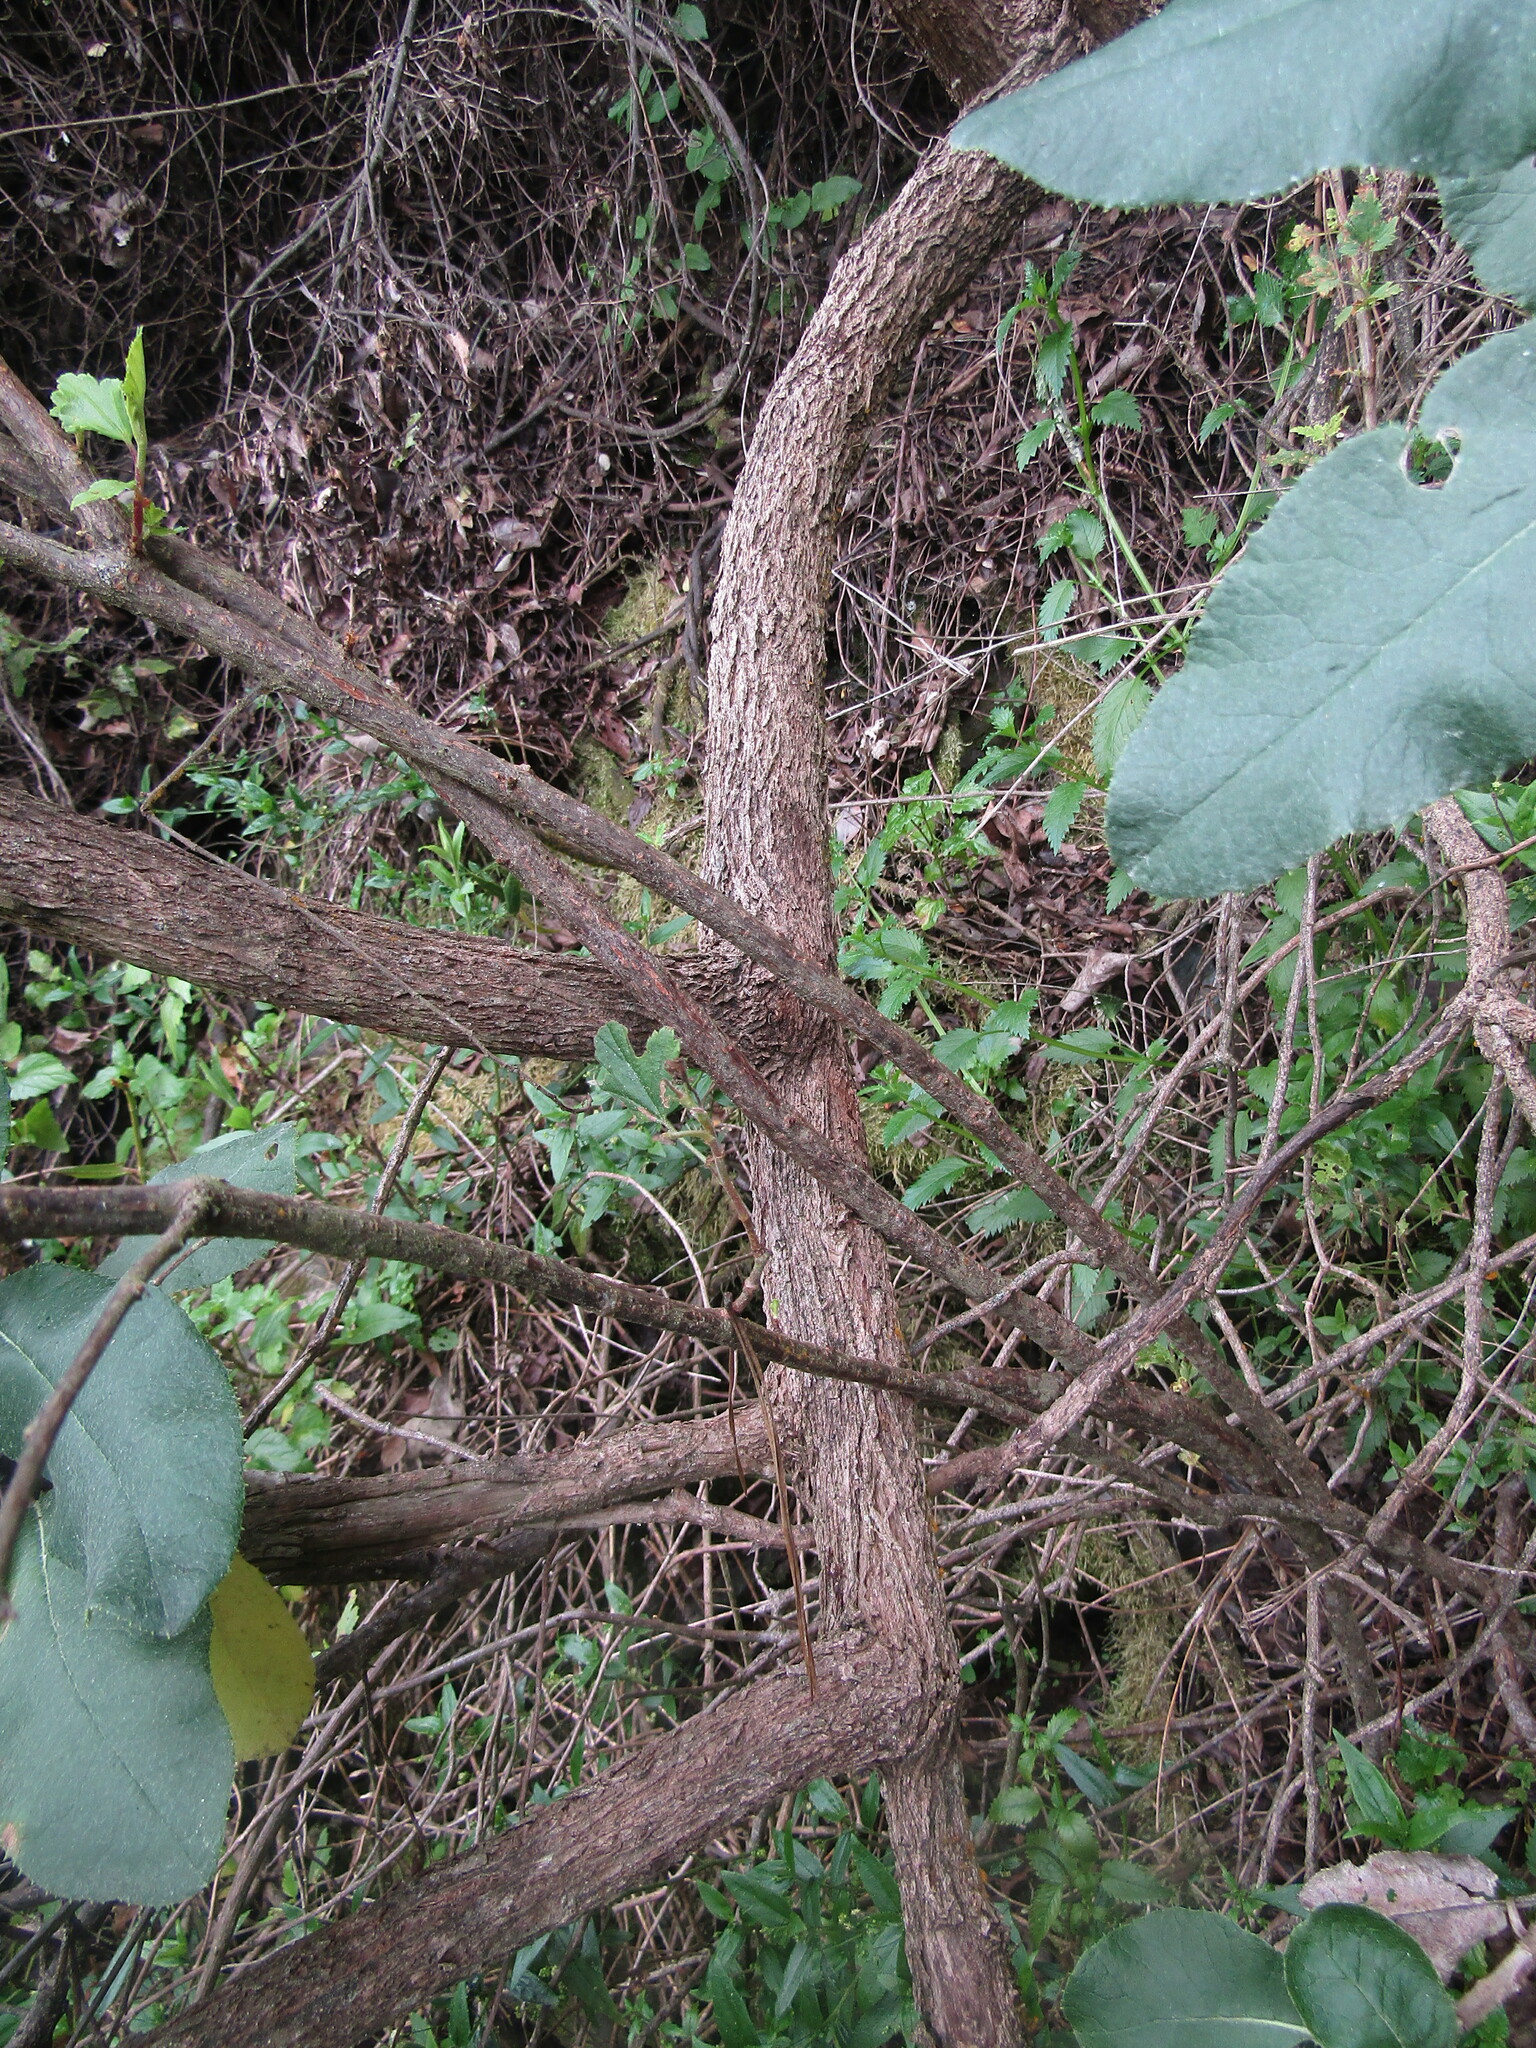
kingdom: Plantae
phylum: Tracheophyta
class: Magnoliopsida
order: Asterales
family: Asteraceae
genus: Acrisione
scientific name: Acrisione denticulata
